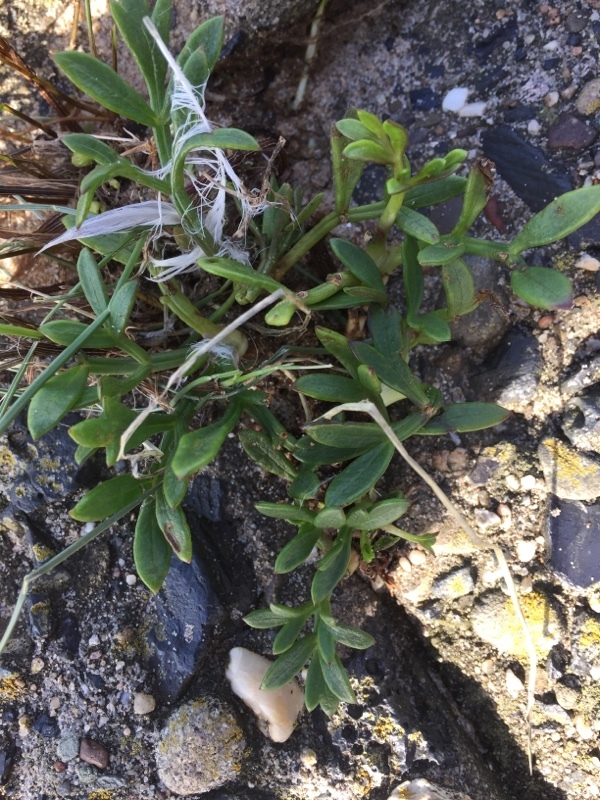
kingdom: Plantae
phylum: Tracheophyta
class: Magnoliopsida
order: Apiales
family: Apiaceae
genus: Crithmum
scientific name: Crithmum maritimum
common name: Rock samphire
